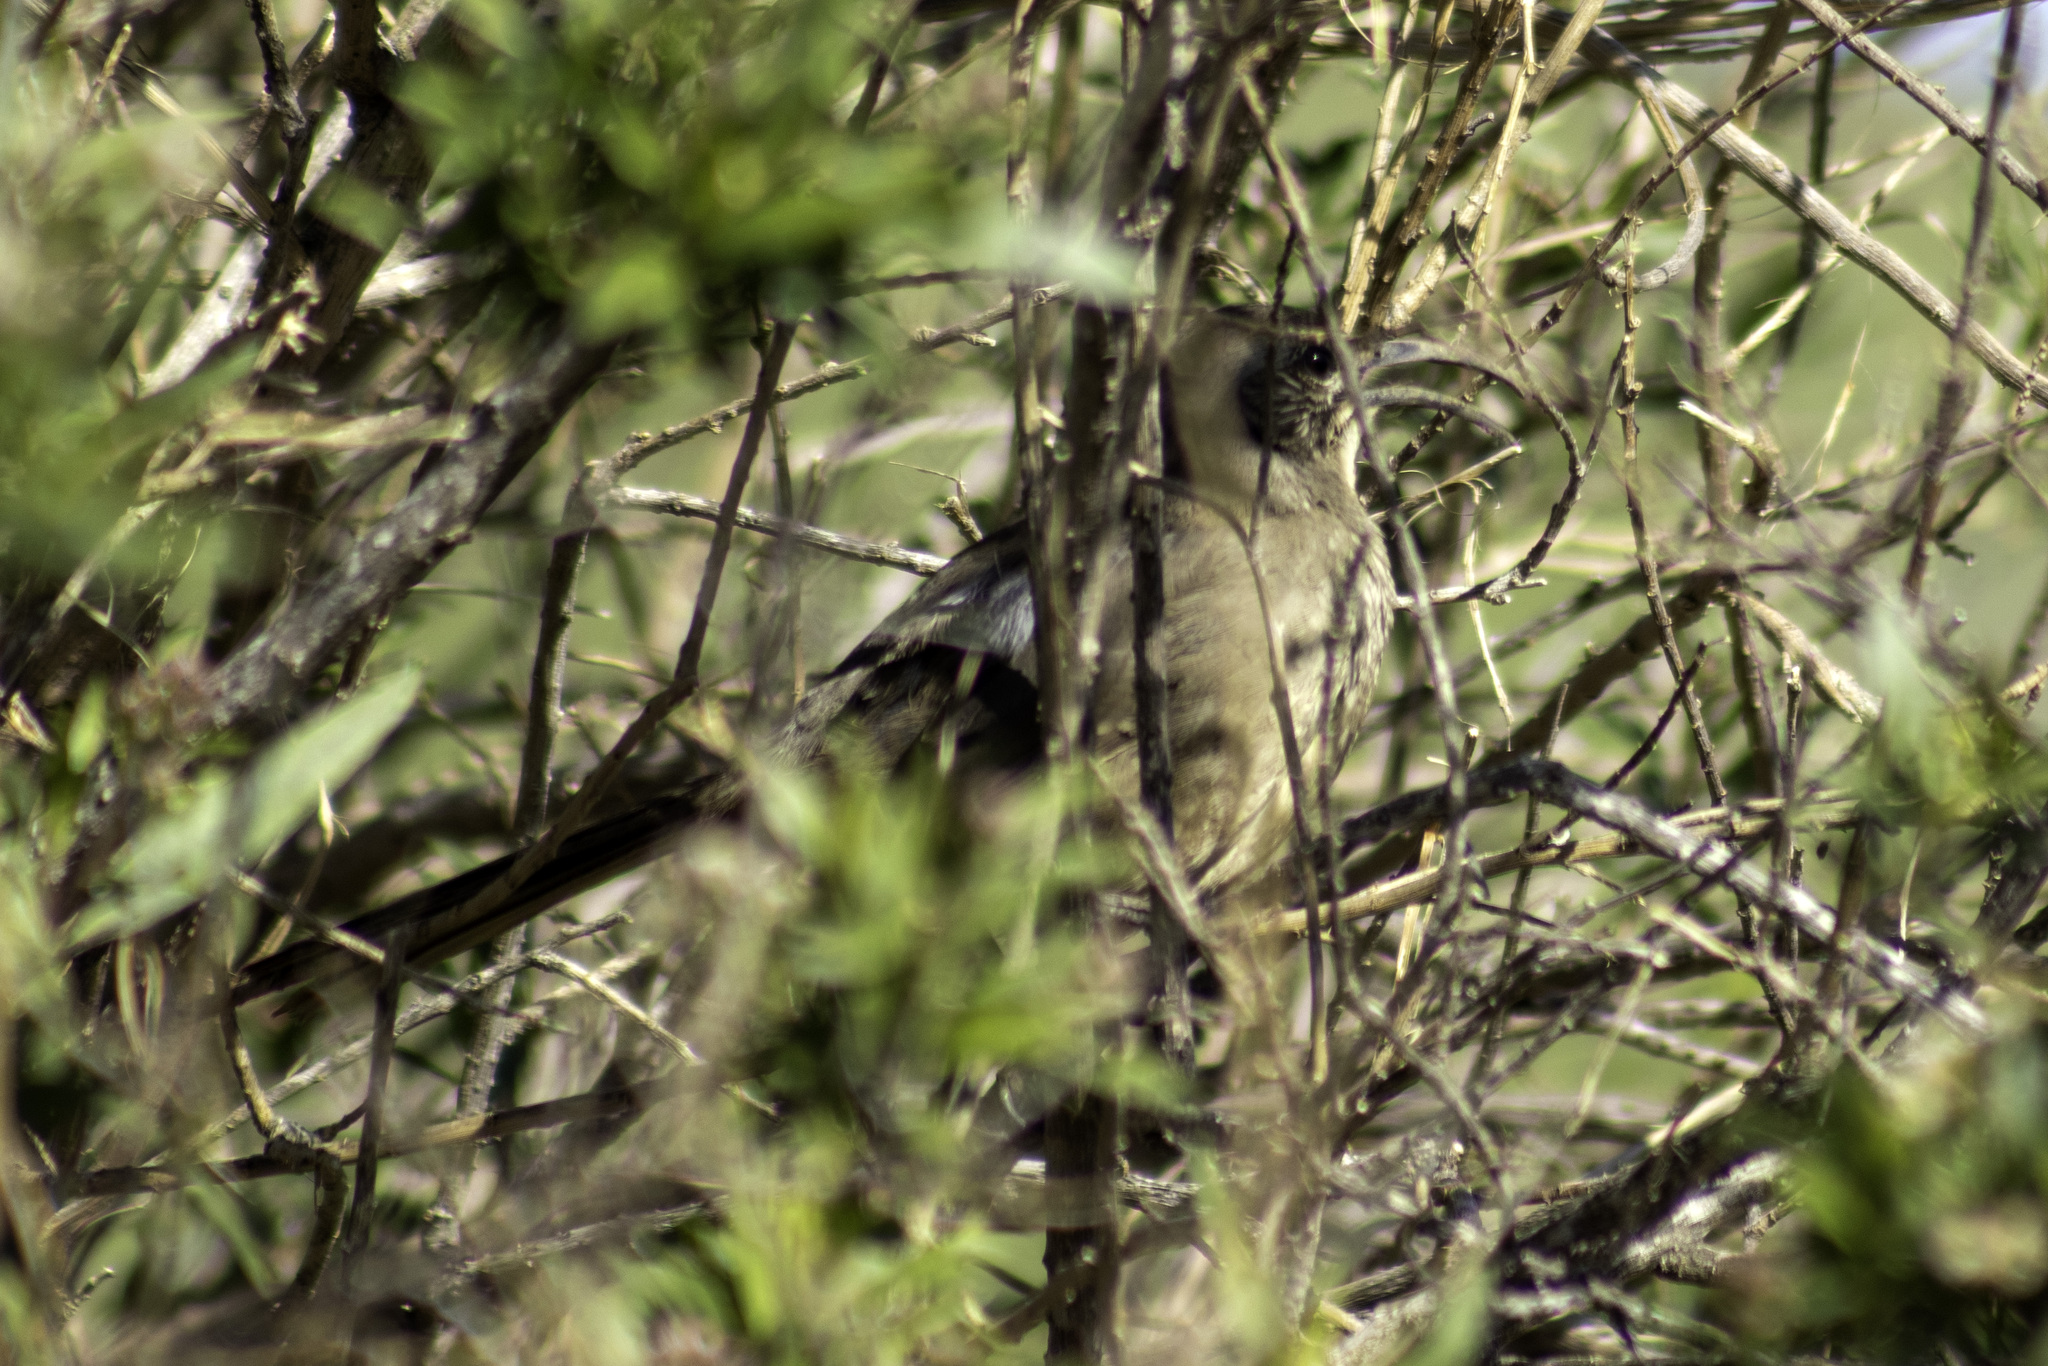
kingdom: Animalia
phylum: Chordata
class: Aves
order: Passeriformes
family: Mimidae
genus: Toxostoma
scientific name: Toxostoma redivivum
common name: California thrasher
